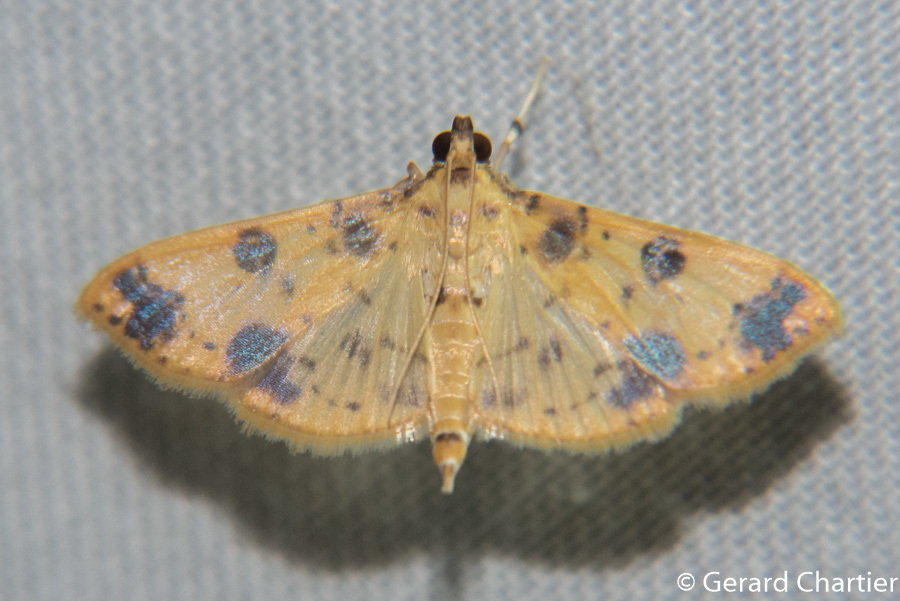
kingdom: Animalia
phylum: Arthropoda
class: Insecta
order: Lepidoptera
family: Crambidae
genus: Patania
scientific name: Patania
